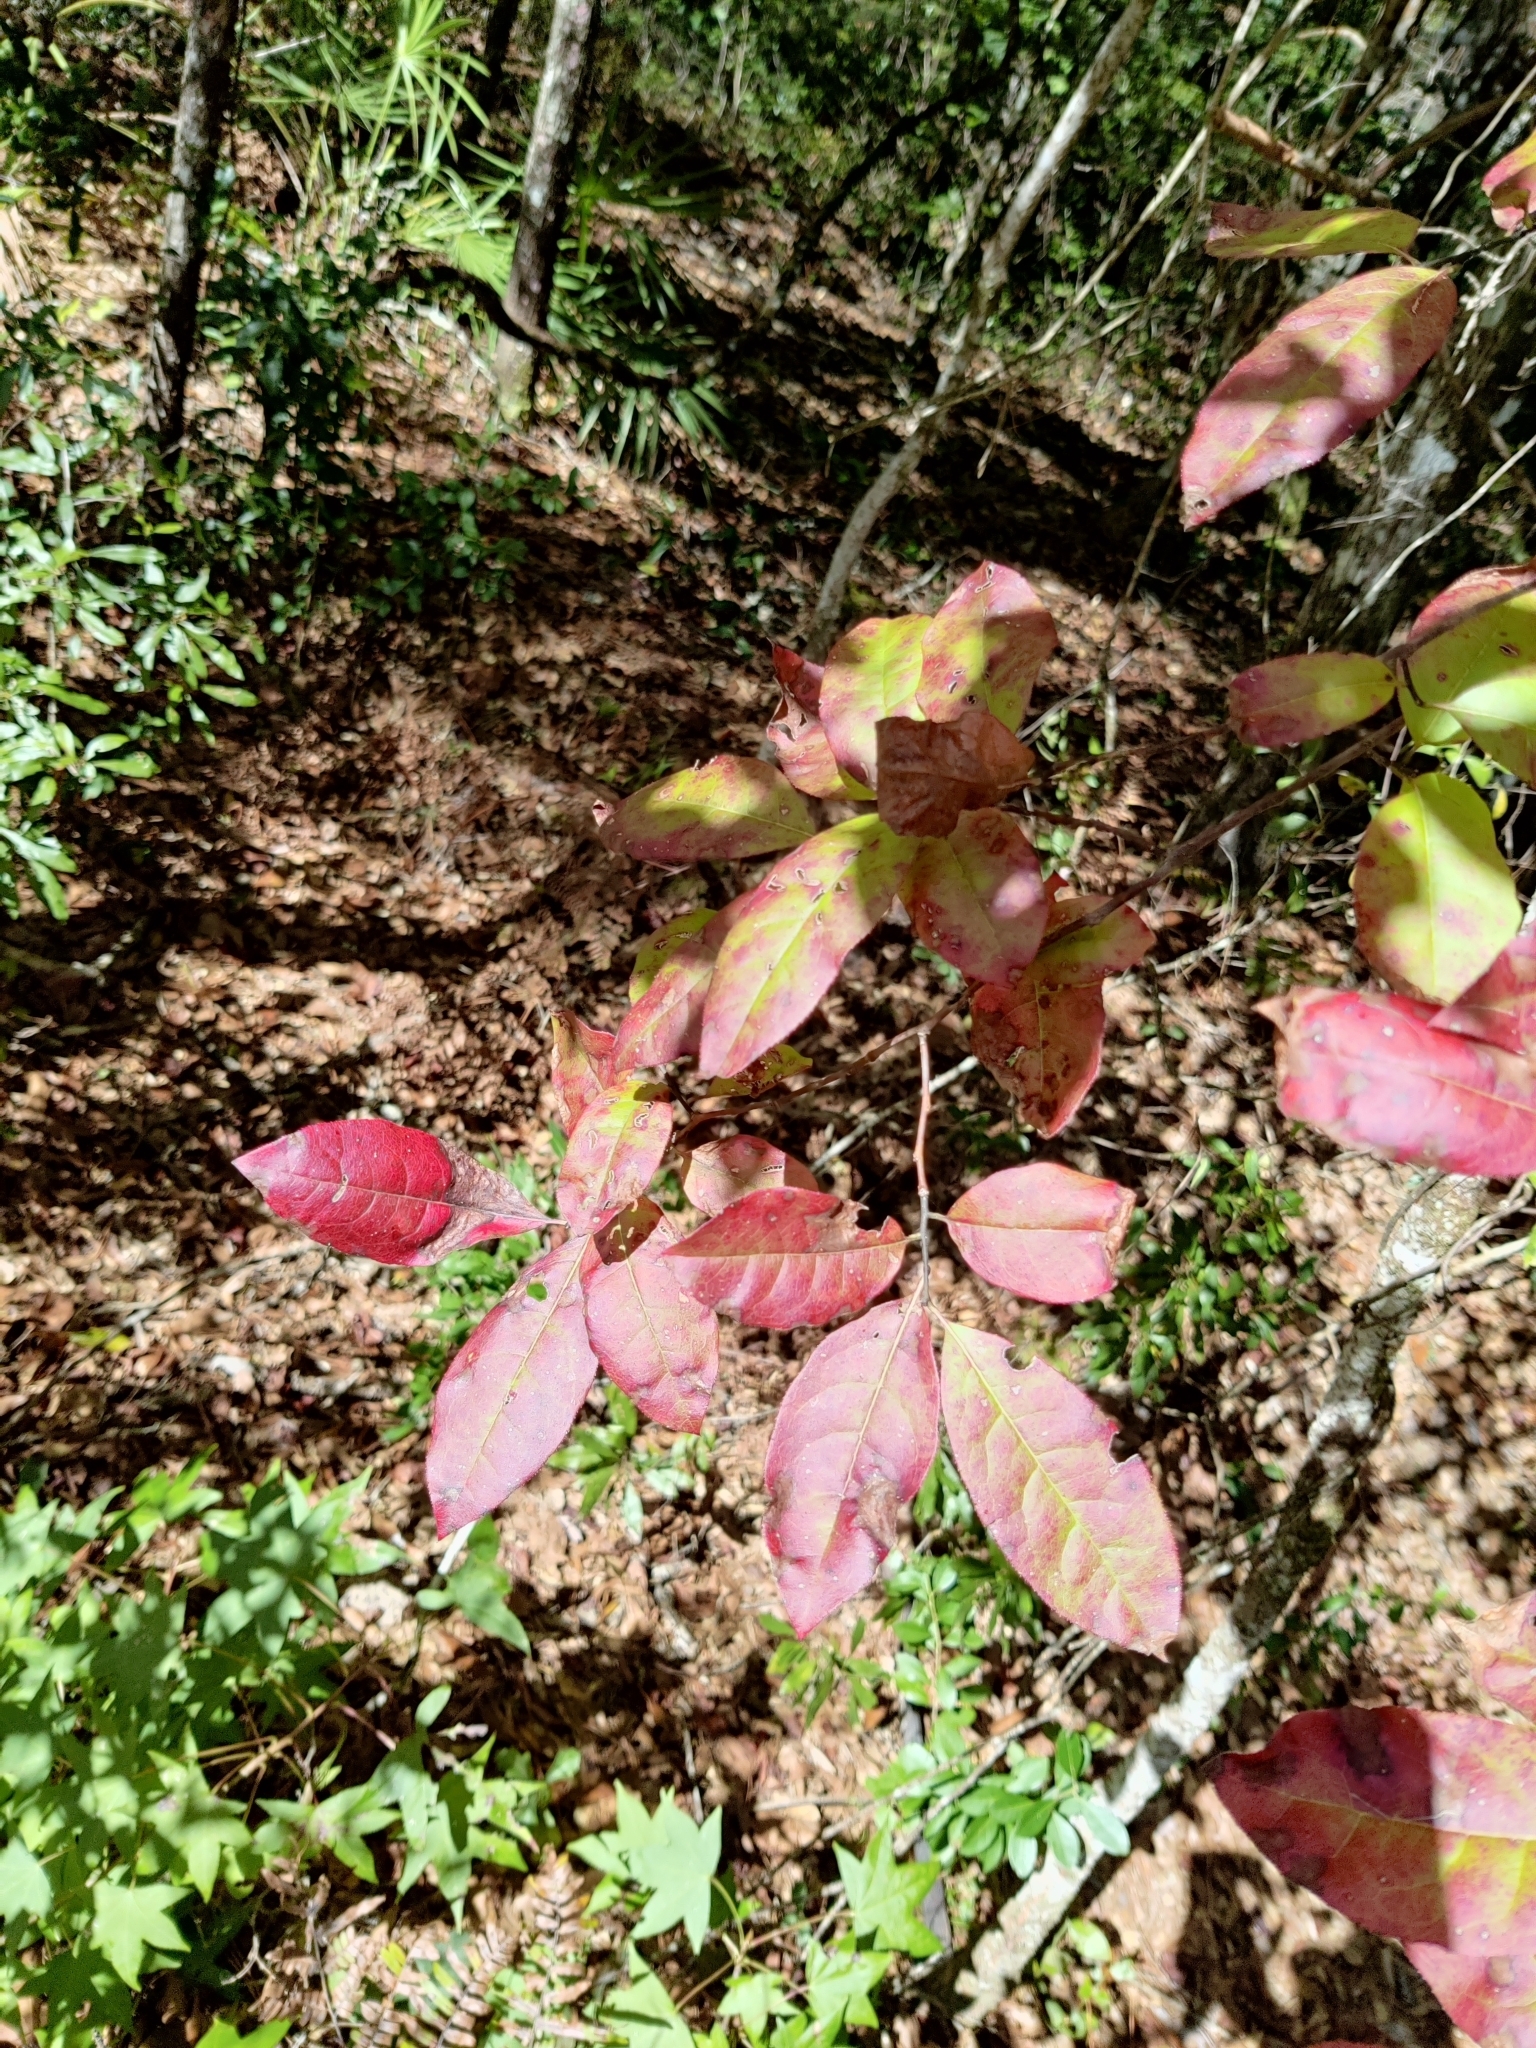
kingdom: Plantae
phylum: Tracheophyta
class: Magnoliopsida
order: Ericales
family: Ericaceae
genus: Oxydendrum
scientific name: Oxydendrum arboreum
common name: Sourwood
